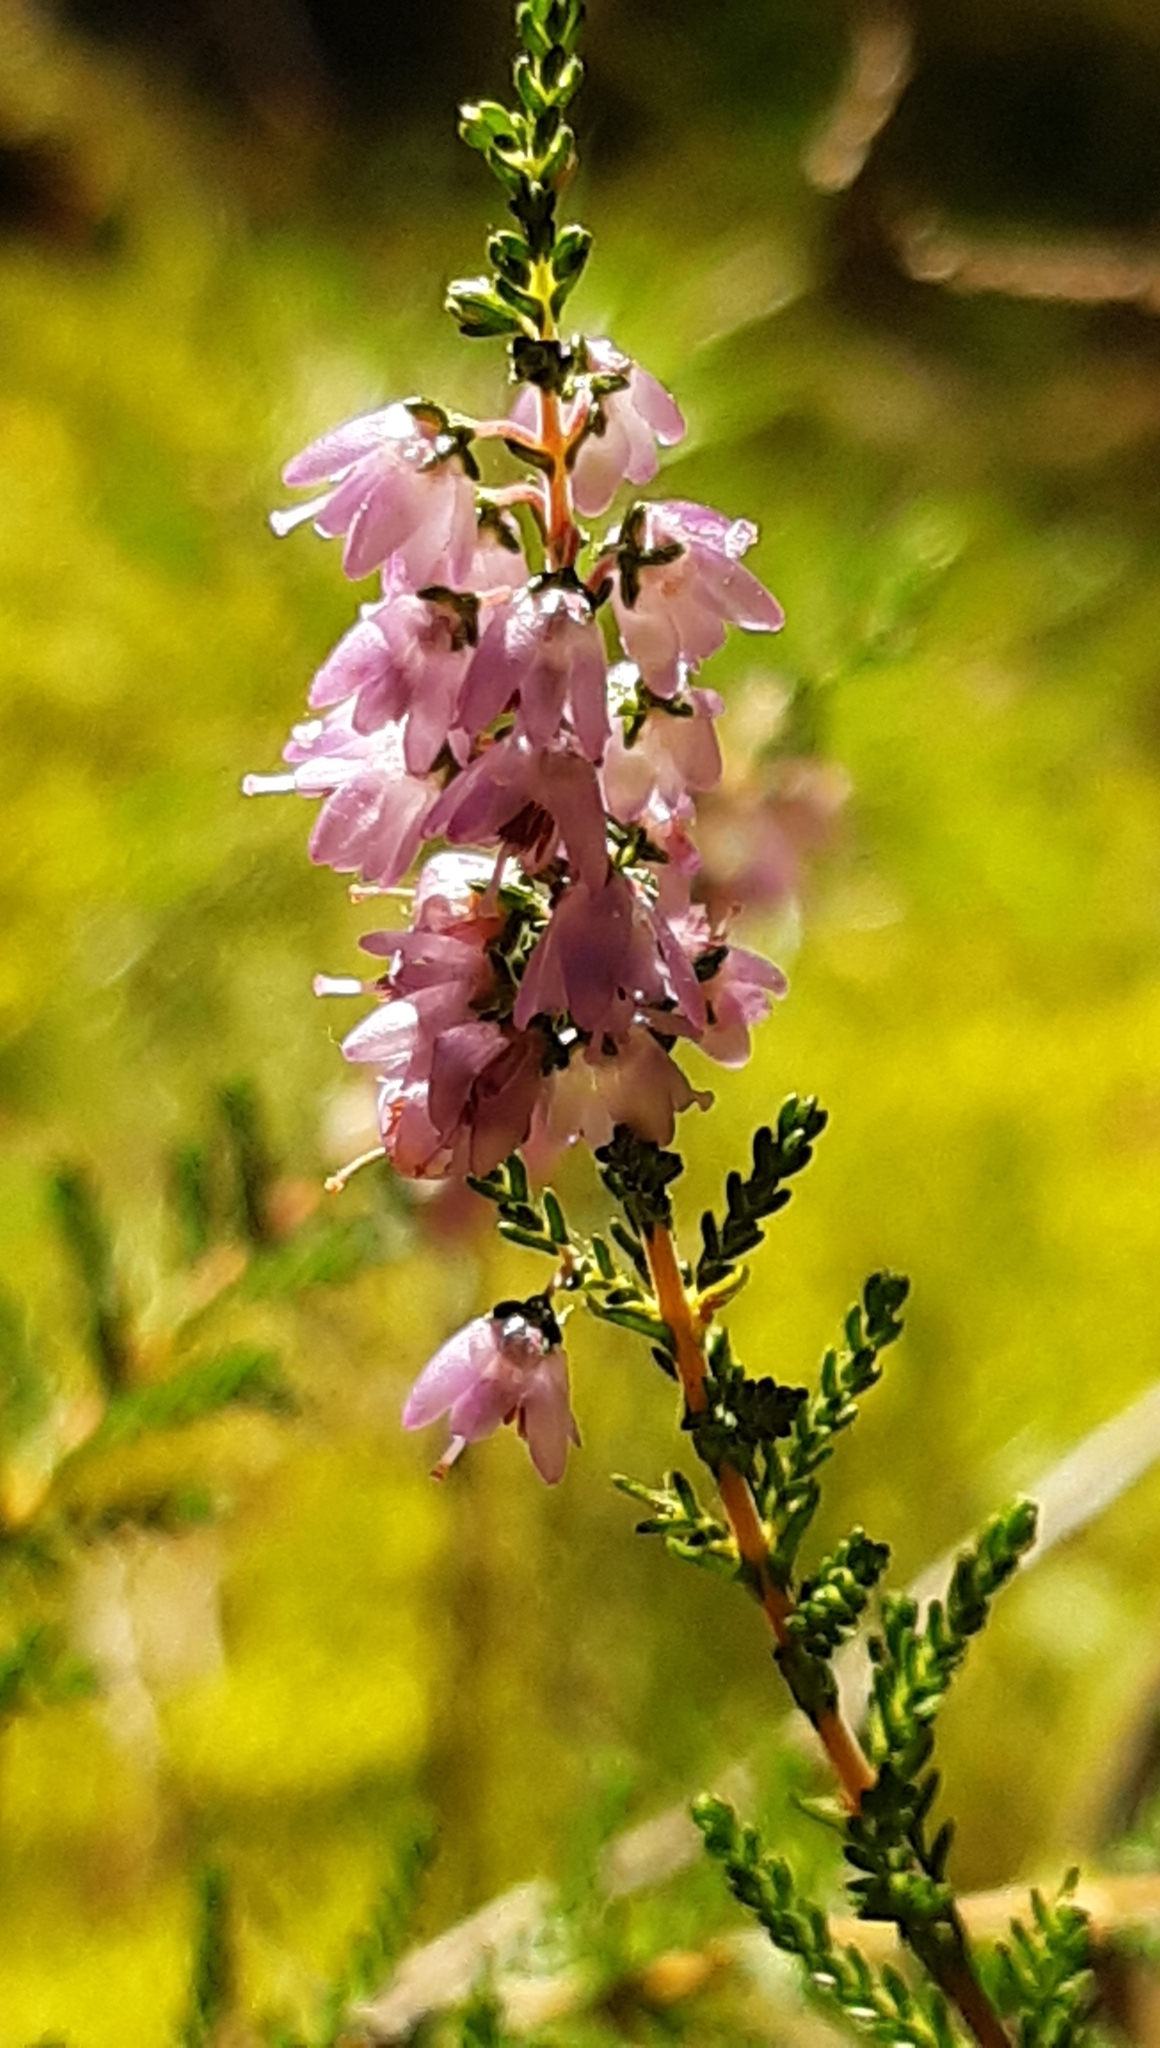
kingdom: Plantae
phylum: Tracheophyta
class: Magnoliopsida
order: Ericales
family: Ericaceae
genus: Calluna
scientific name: Calluna vulgaris
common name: Heather
